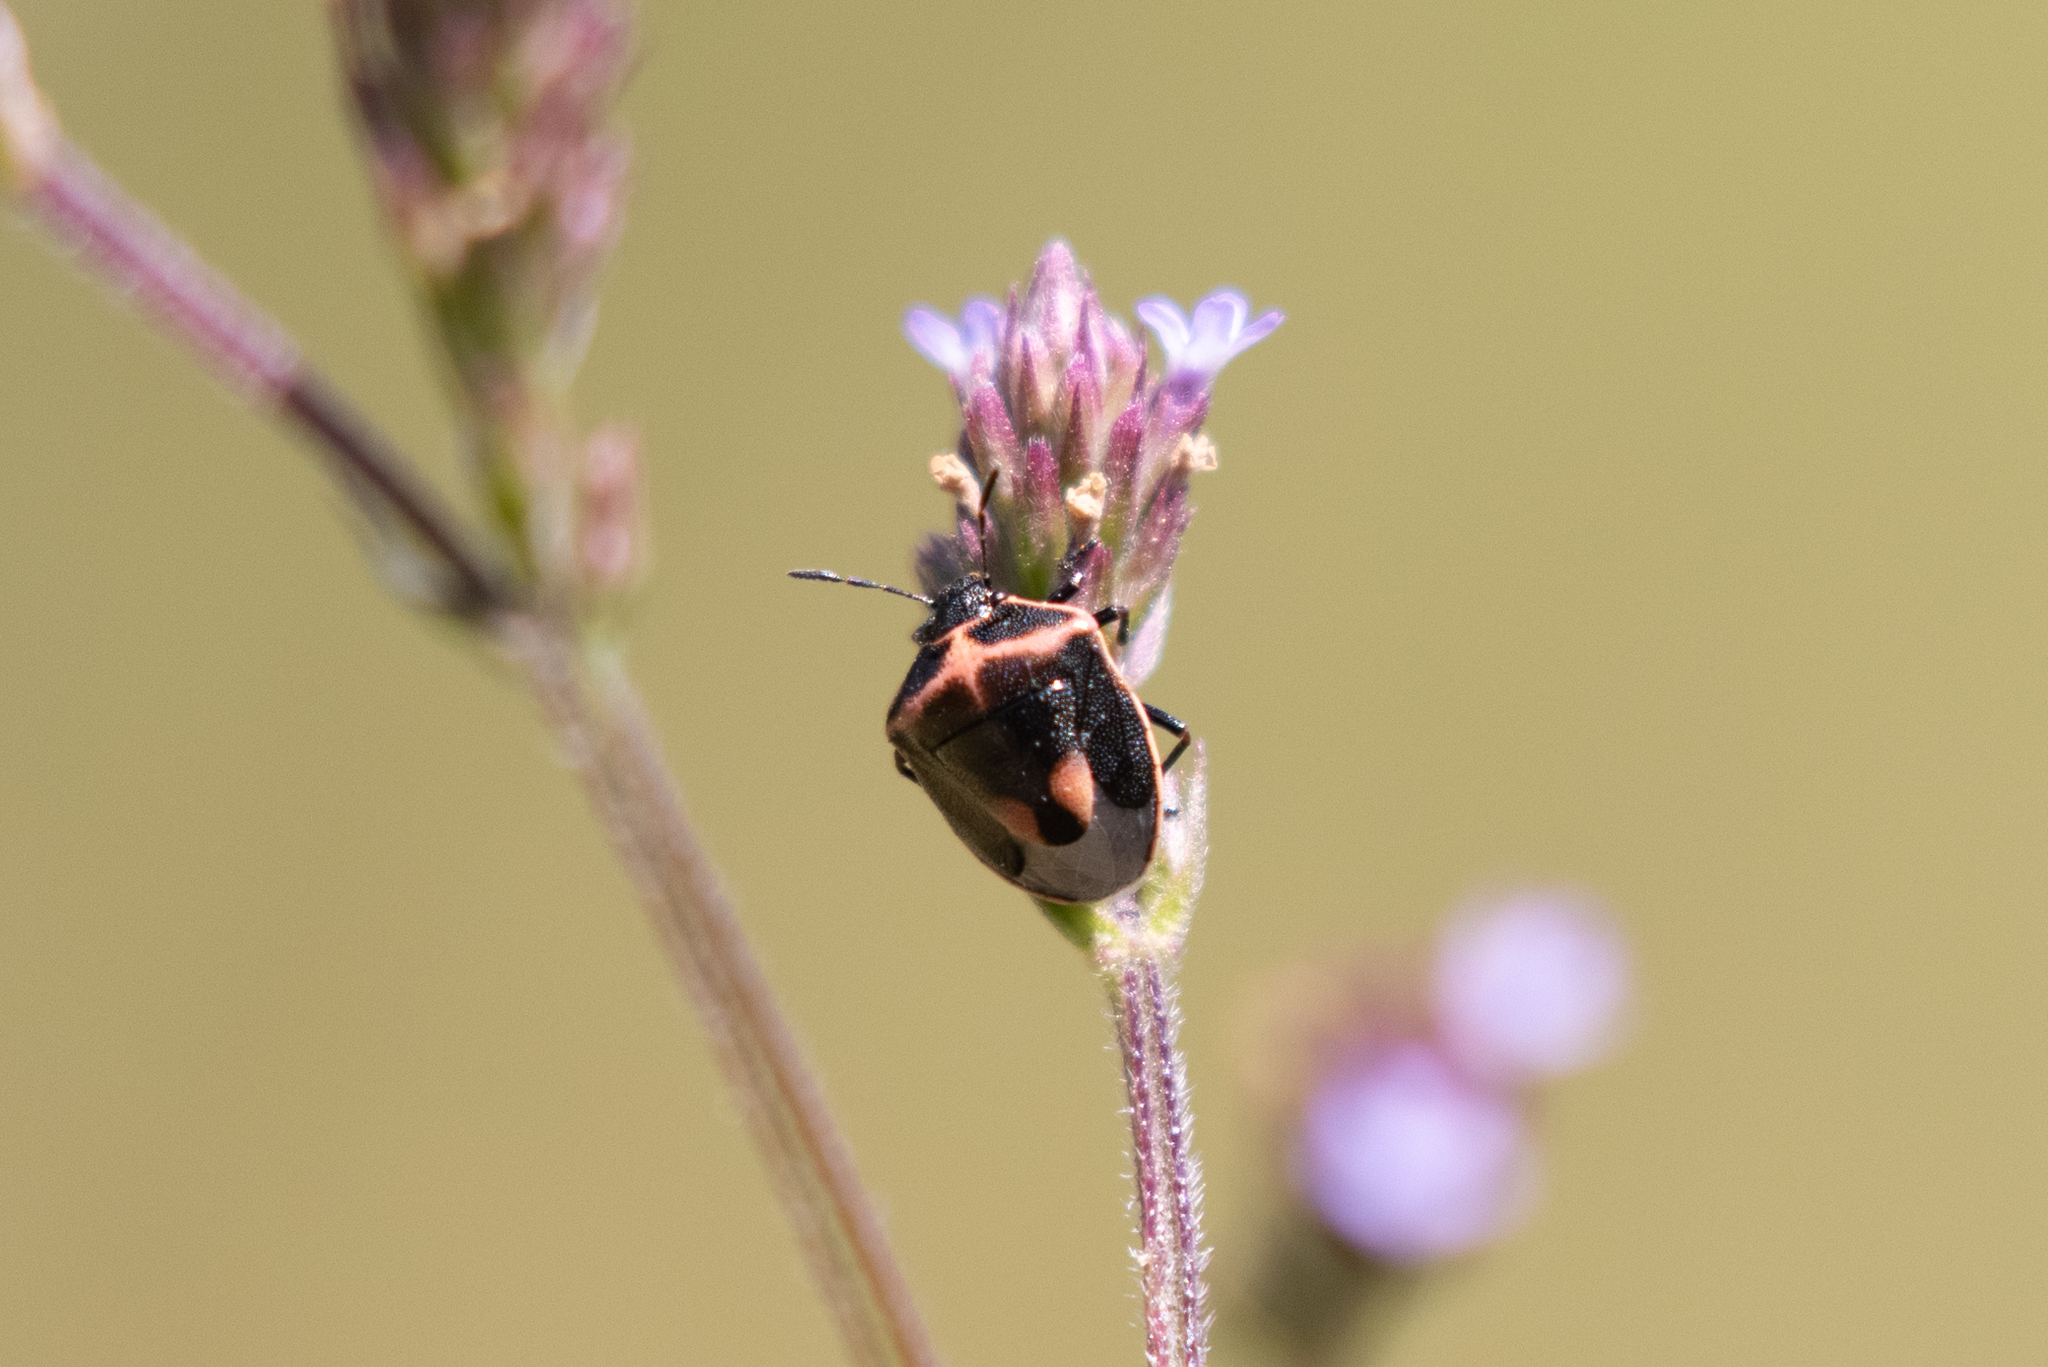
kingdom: Animalia
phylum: Arthropoda
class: Insecta
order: Hemiptera
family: Pentatomidae
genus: Cosmopepla
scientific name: Cosmopepla lintneriana
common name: Twice-stabbed stink bug
